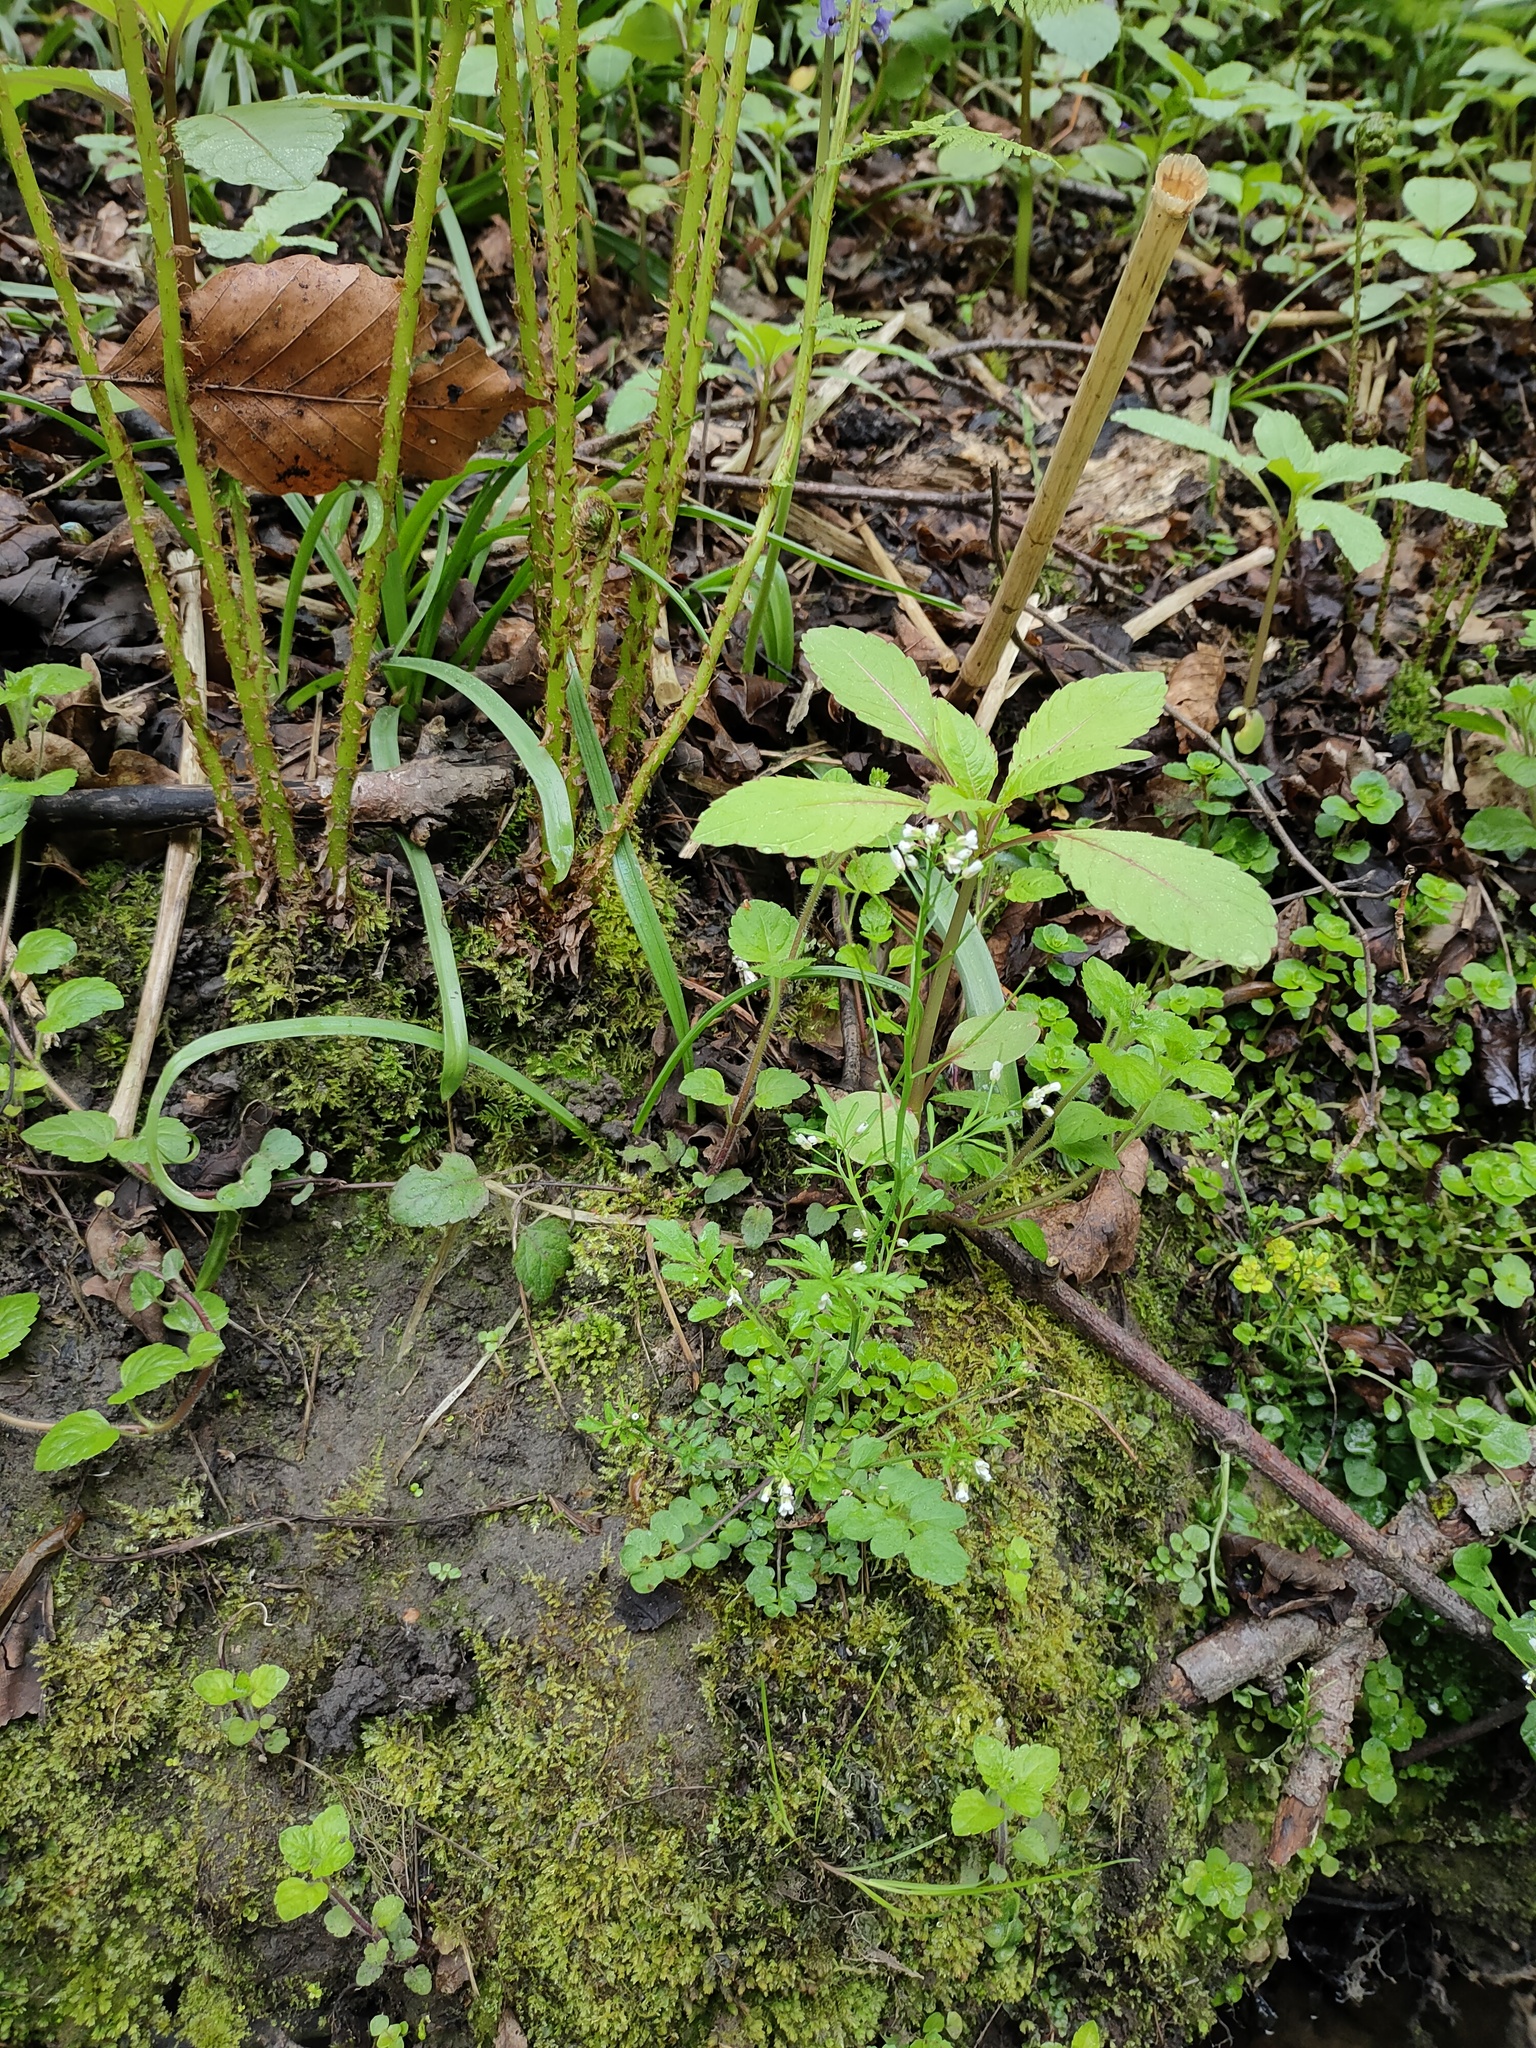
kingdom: Plantae
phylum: Tracheophyta
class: Magnoliopsida
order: Ericales
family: Balsaminaceae
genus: Impatiens
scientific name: Impatiens glandulifera
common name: Himalayan balsam
